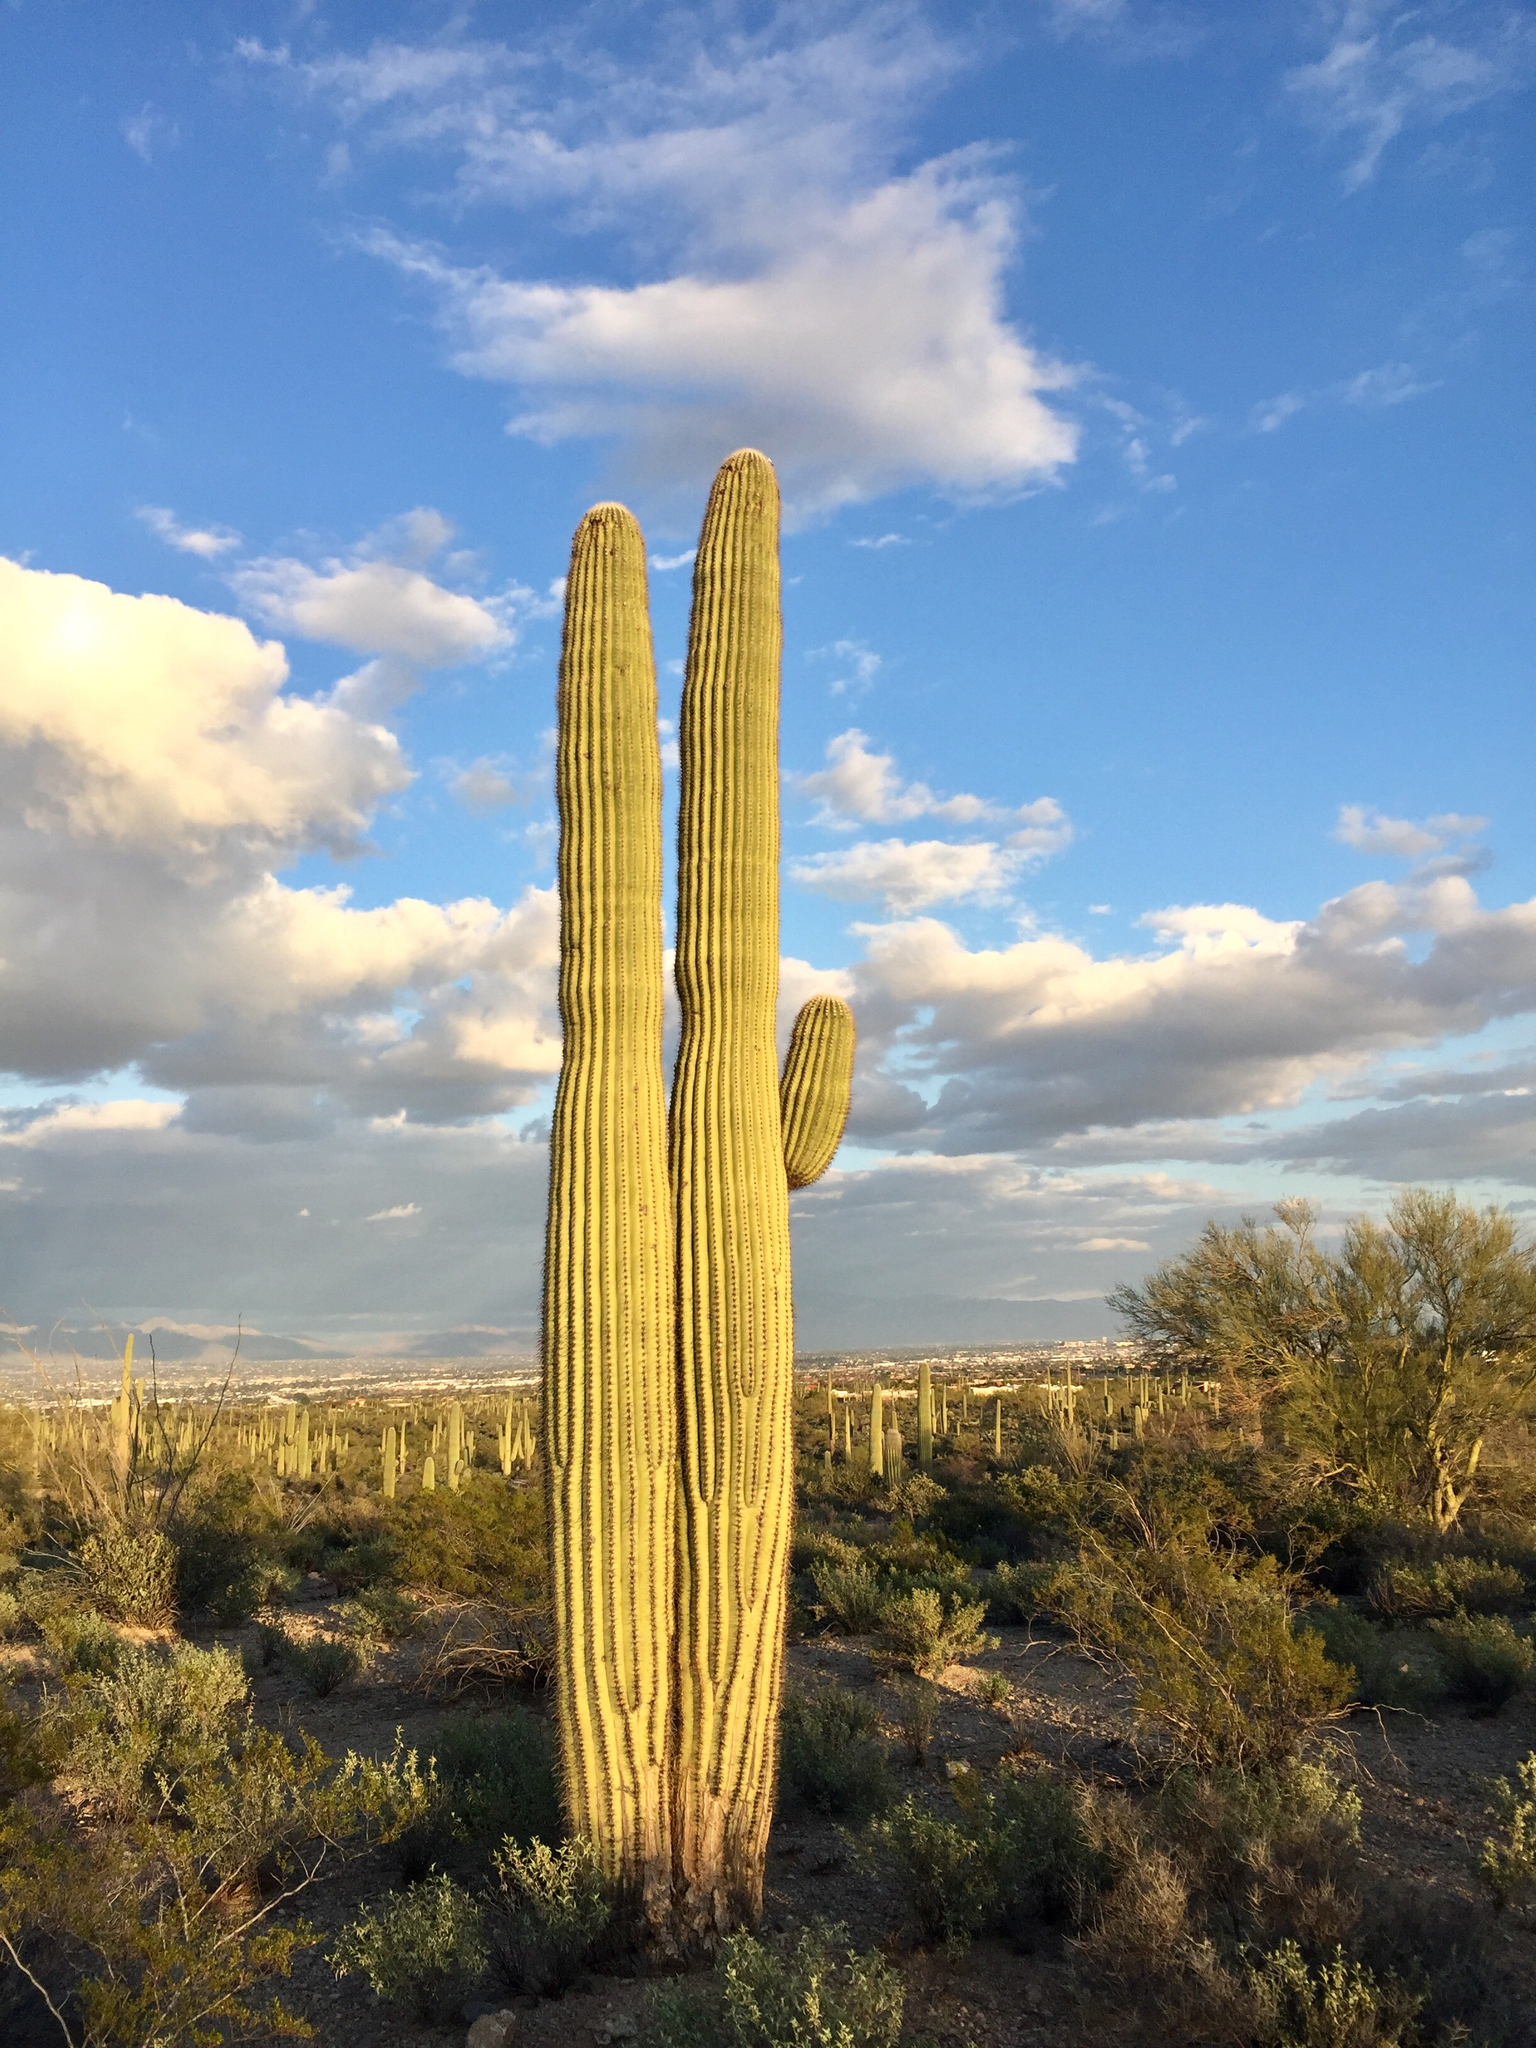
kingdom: Plantae
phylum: Tracheophyta
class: Magnoliopsida
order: Caryophyllales
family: Cactaceae
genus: Carnegiea
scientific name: Carnegiea gigantea
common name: Saguaro
